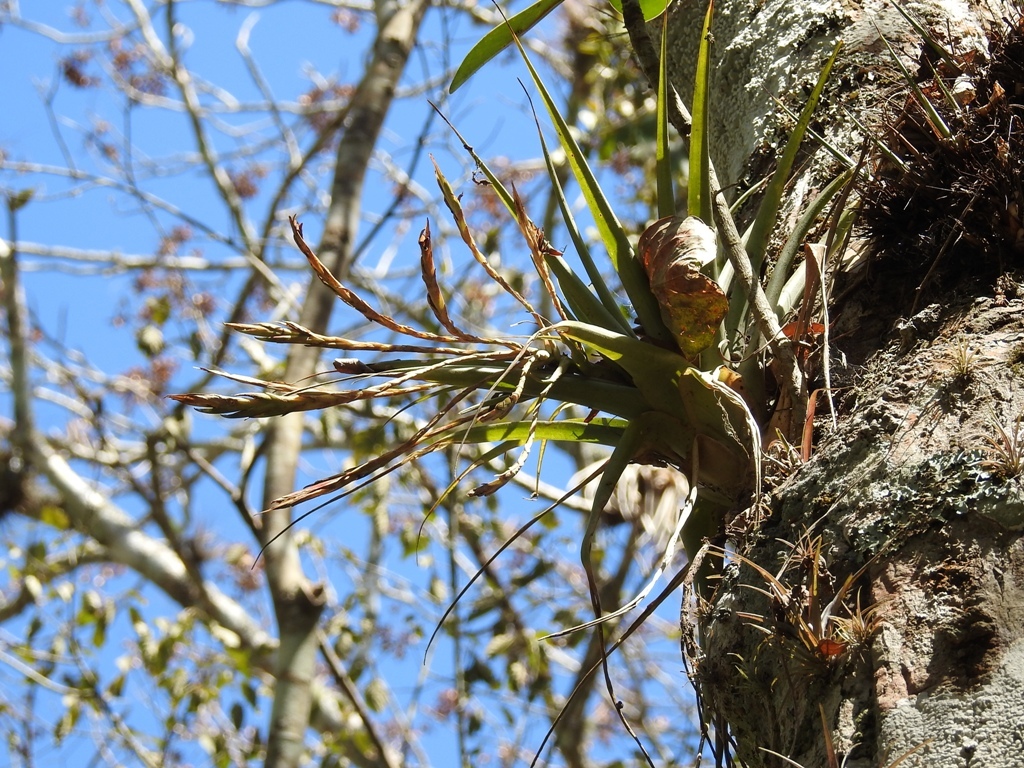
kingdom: Plantae
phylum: Tracheophyta
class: Liliopsida
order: Poales
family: Bromeliaceae
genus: Tillandsia
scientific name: Tillandsia flabellata
